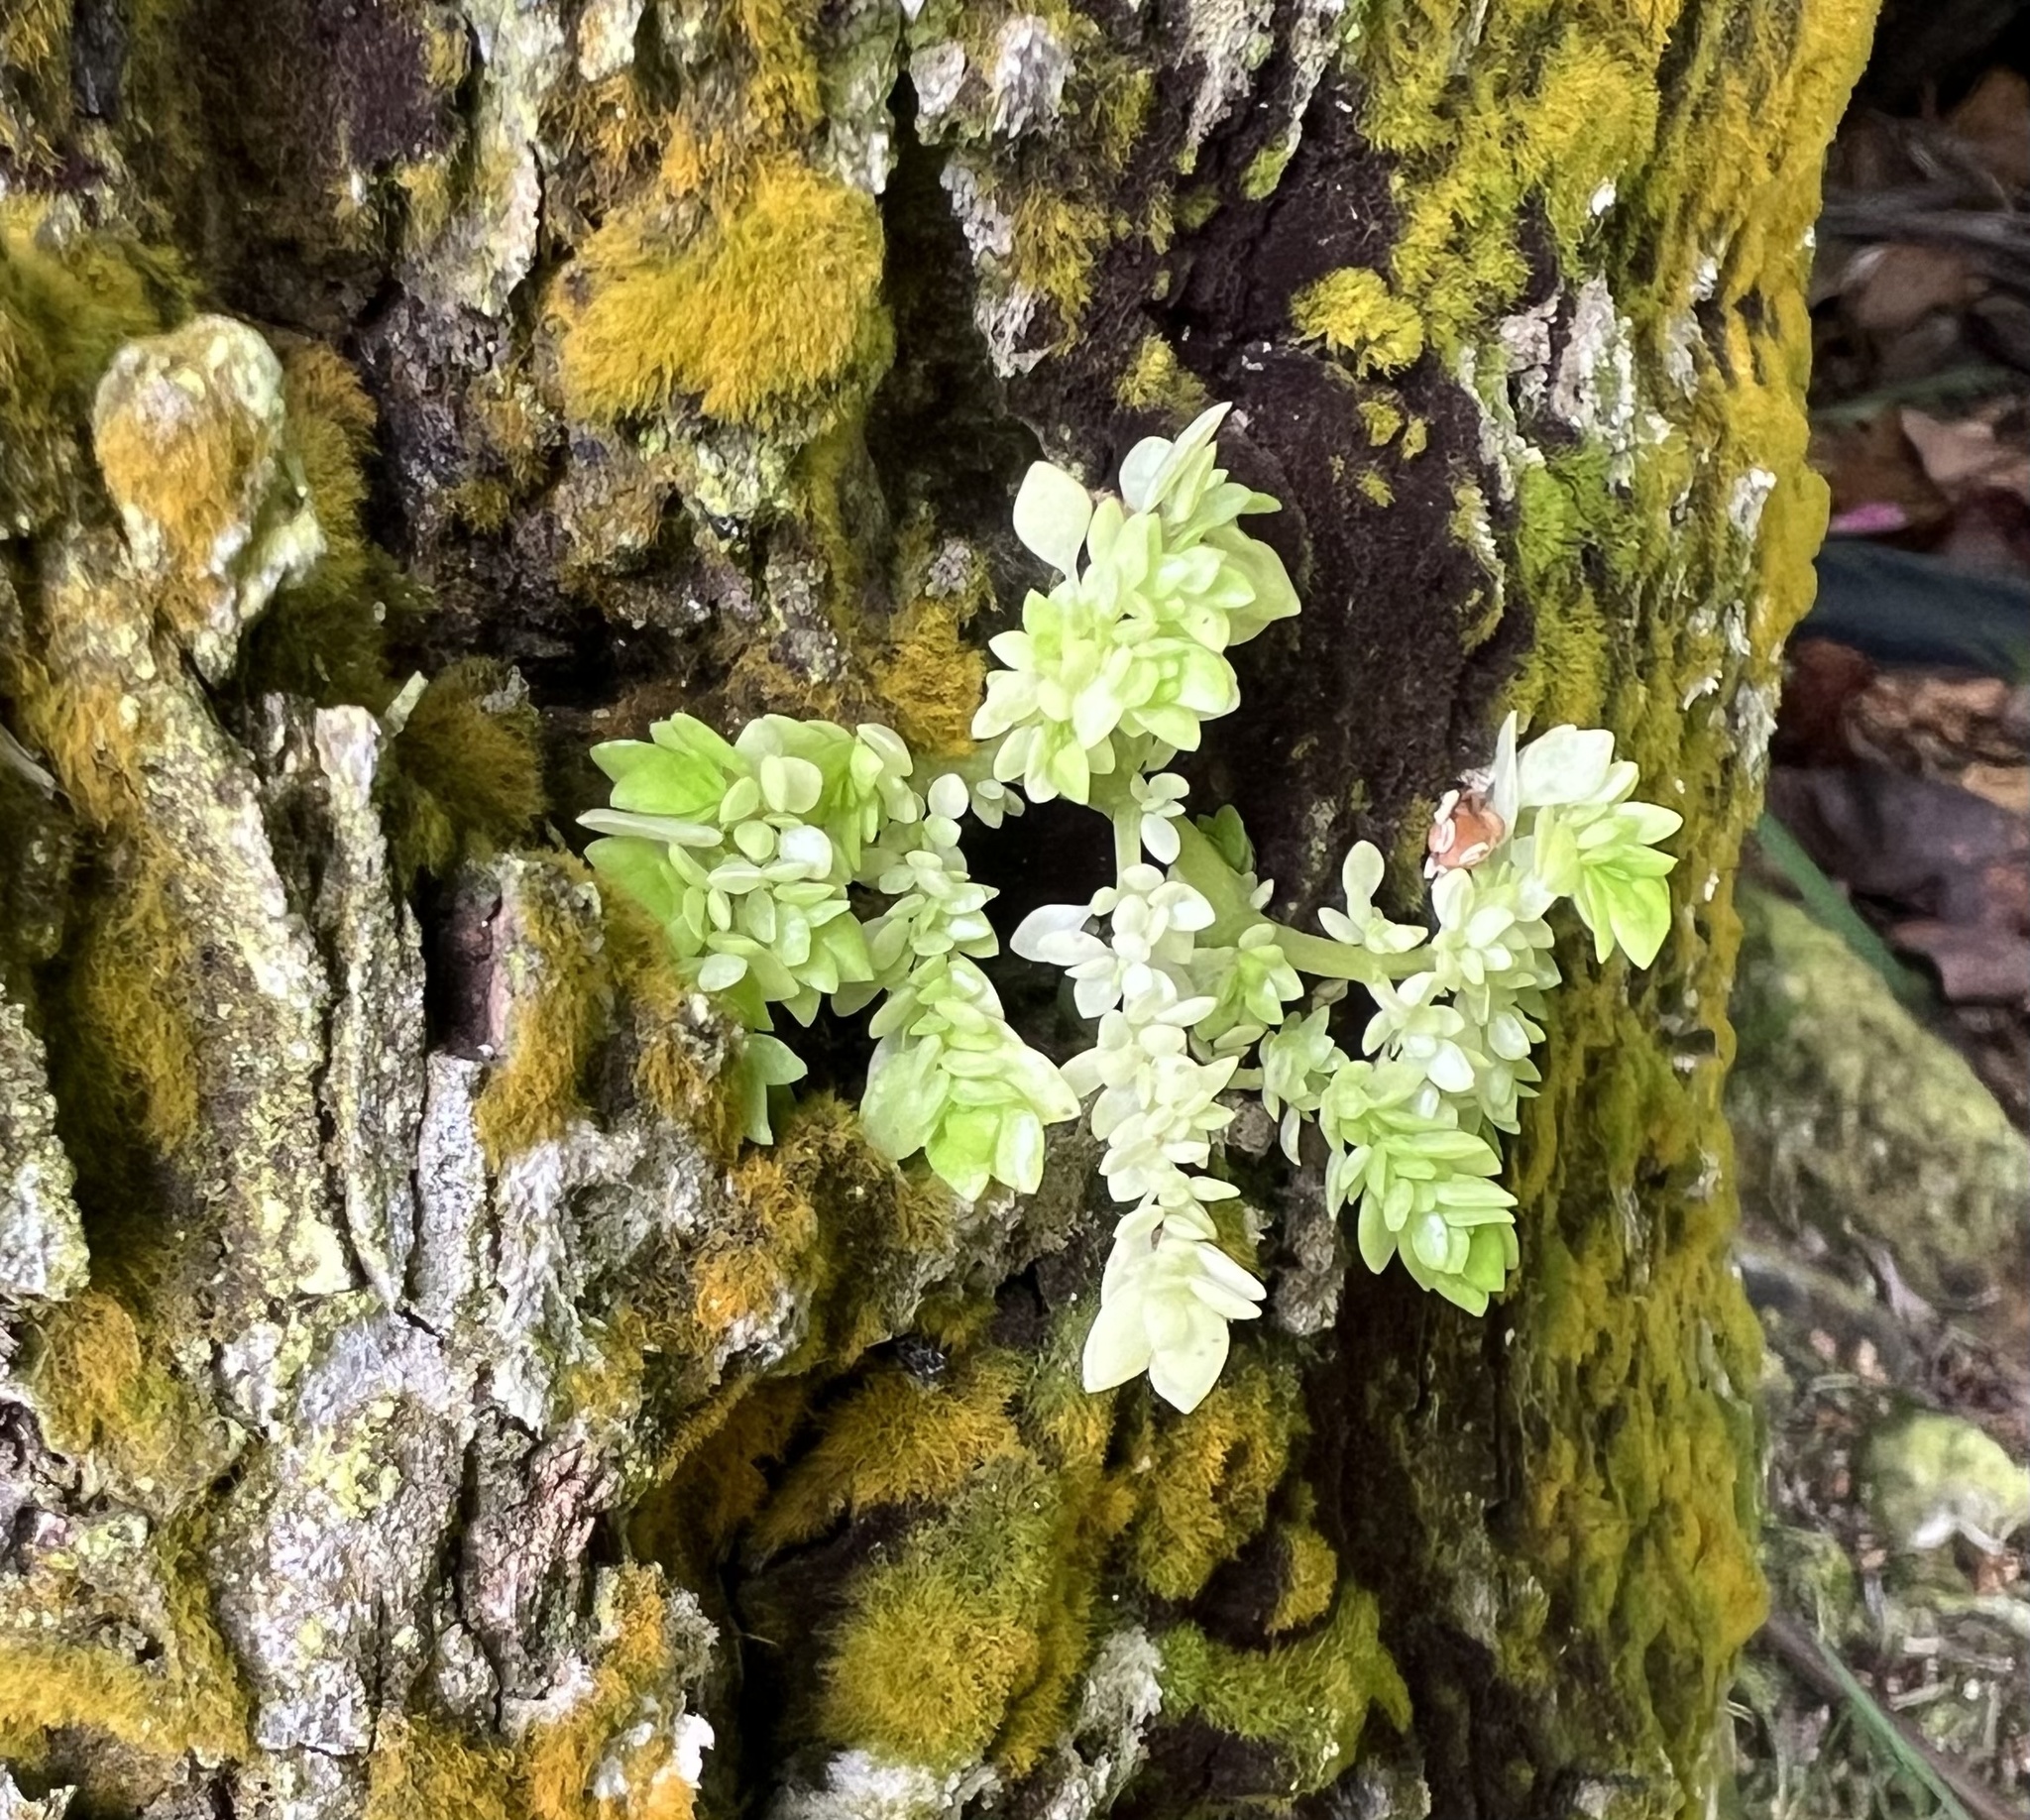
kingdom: Plantae
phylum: Tracheophyta
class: Magnoliopsida
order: Rosales
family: Urticaceae
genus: Pilea
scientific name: Pilea microphylla
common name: Artillery-plant
